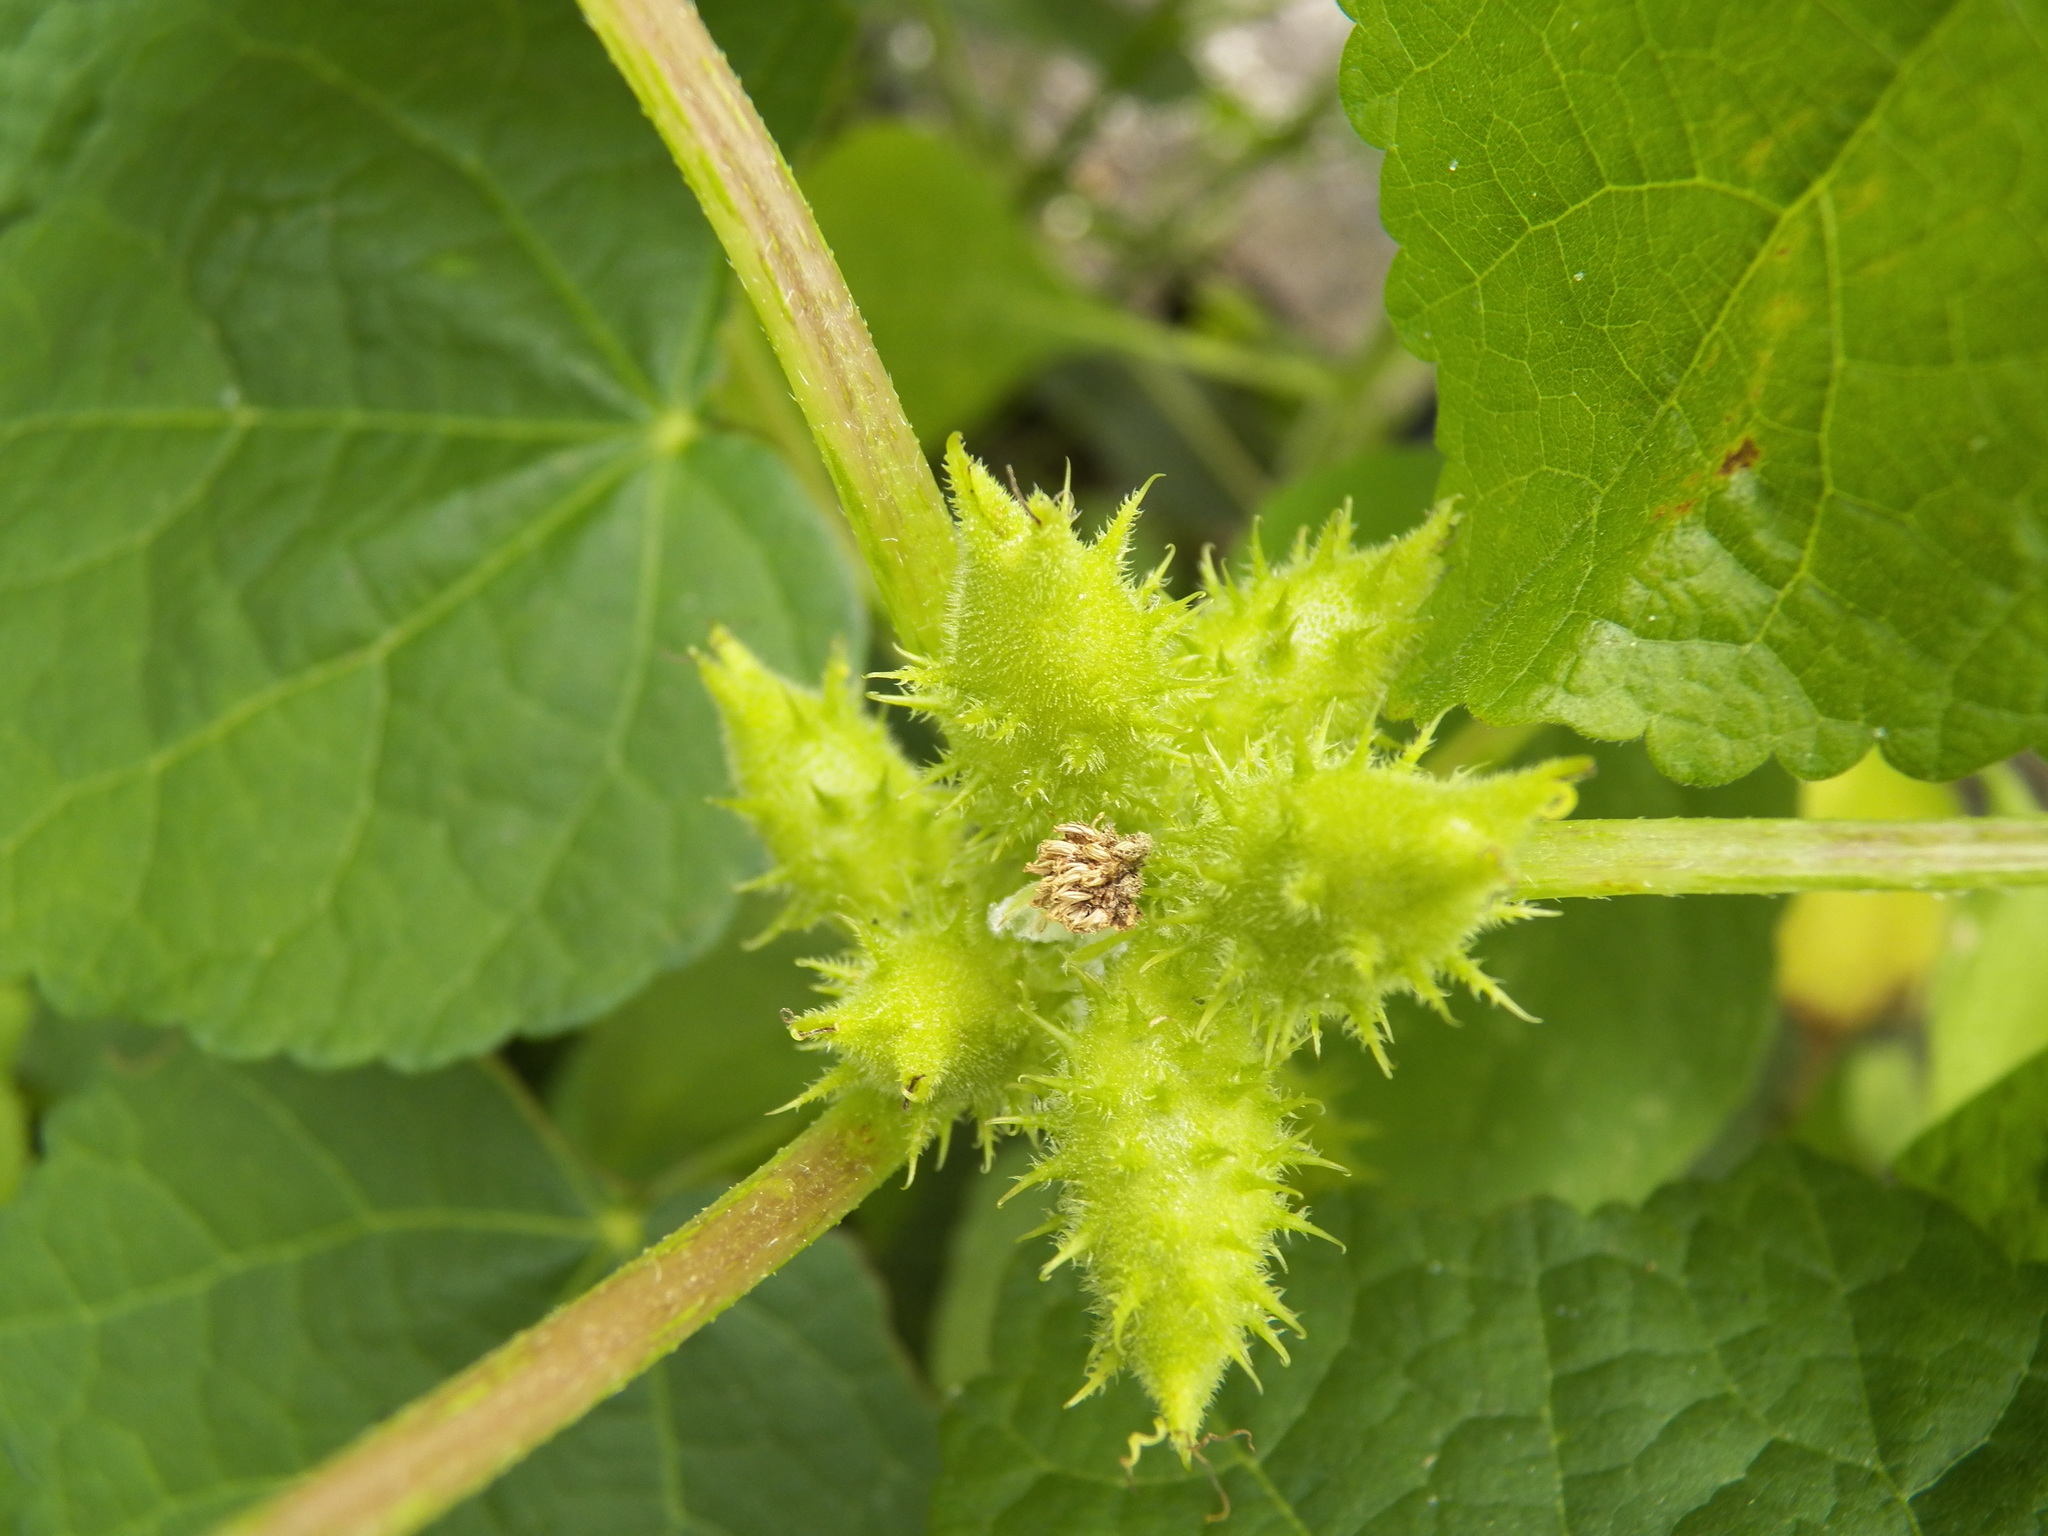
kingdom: Plantae
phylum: Tracheophyta
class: Magnoliopsida
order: Asterales
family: Asteraceae
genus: Xanthium
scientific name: Xanthium strumarium
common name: Rough cocklebur
